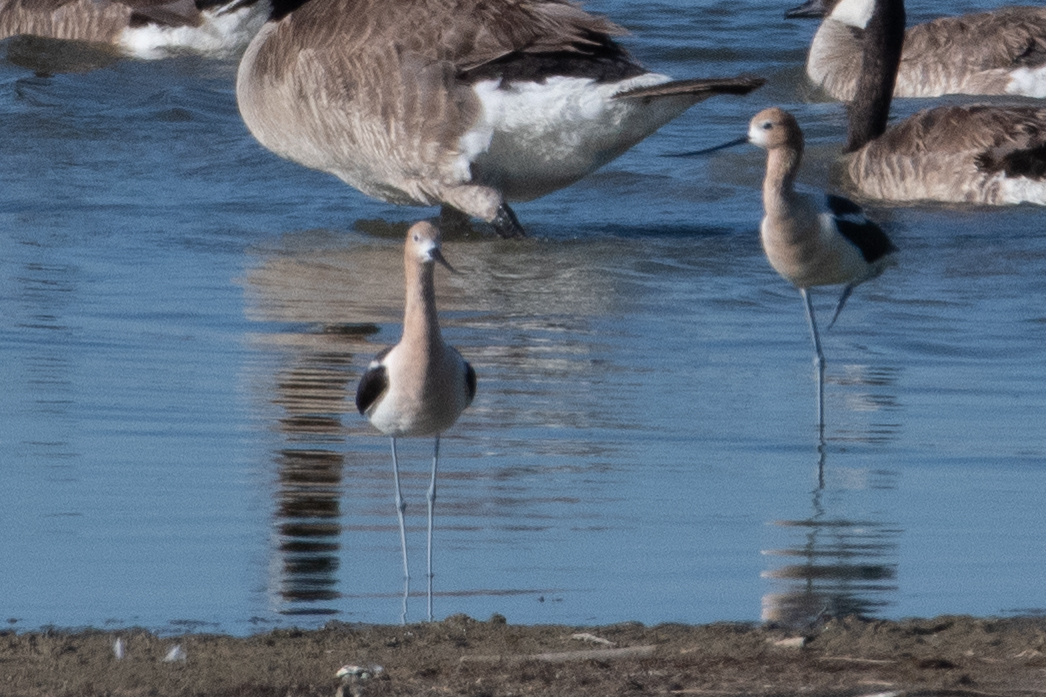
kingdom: Animalia
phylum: Chordata
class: Aves
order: Charadriiformes
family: Recurvirostridae
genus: Recurvirostra
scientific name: Recurvirostra americana
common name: American avocet
